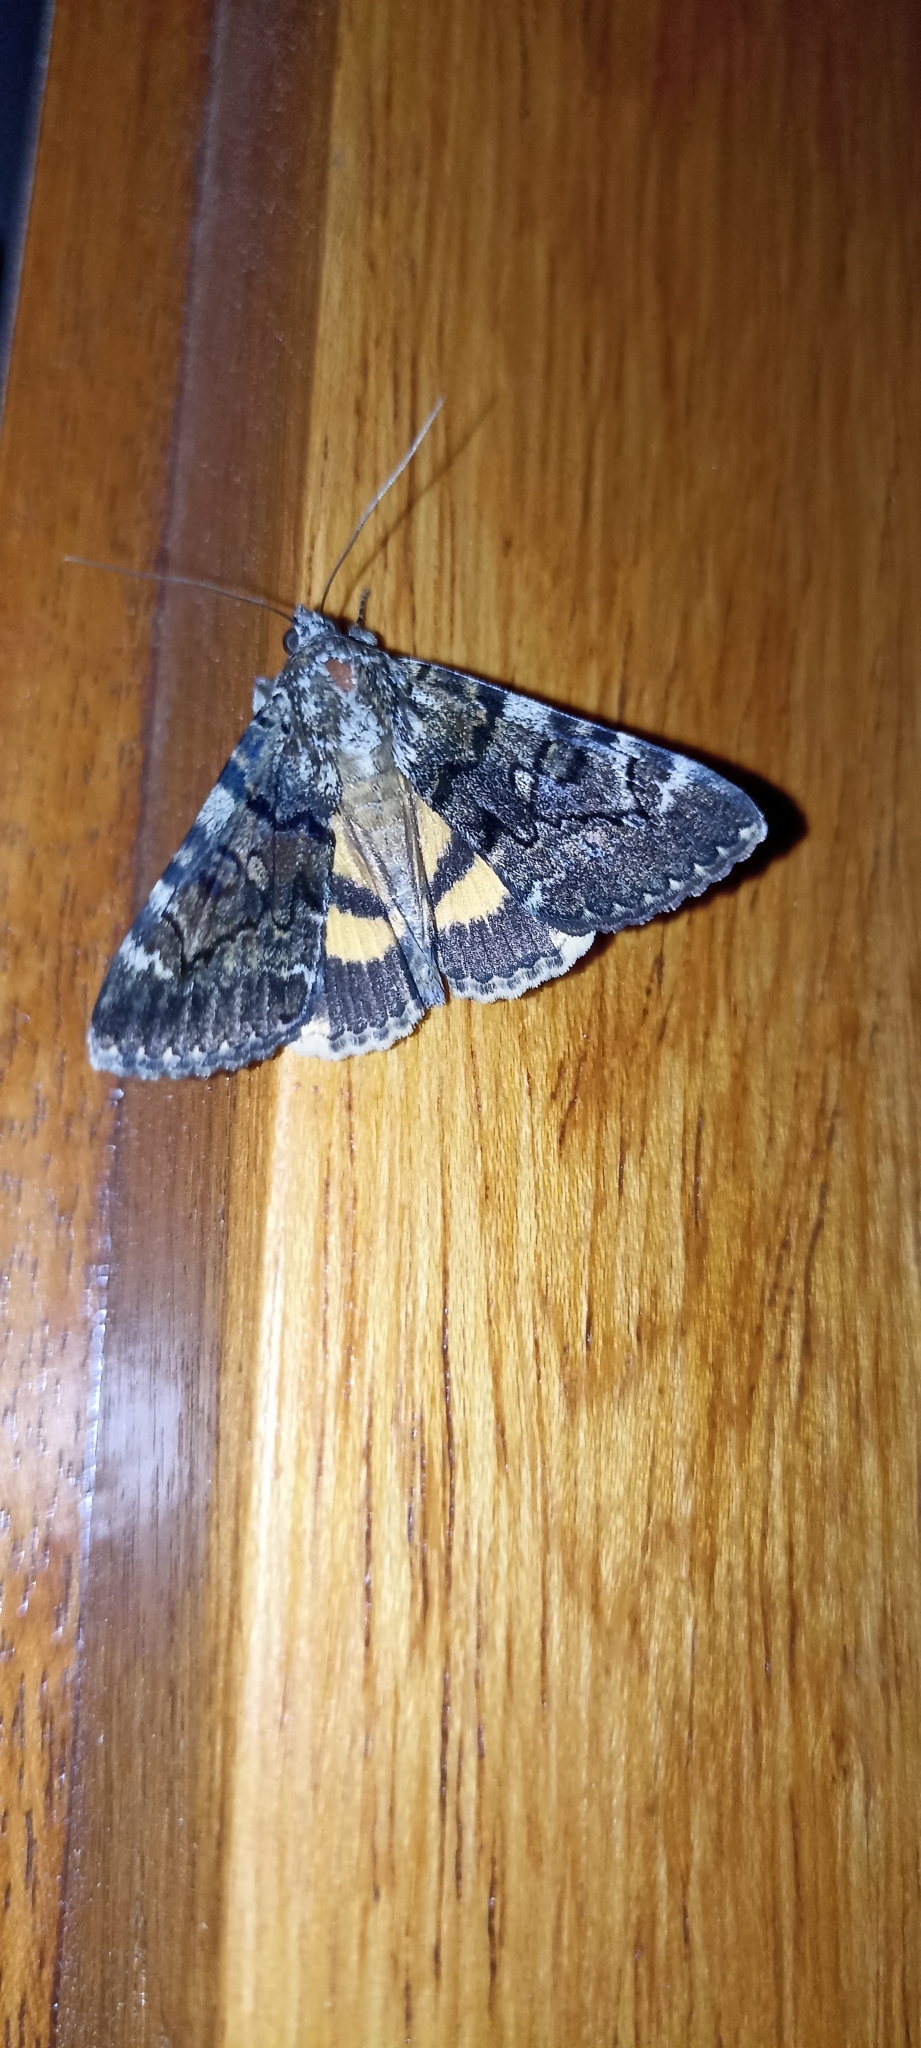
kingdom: Animalia
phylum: Arthropoda
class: Insecta
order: Lepidoptera
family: Erebidae
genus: Catocala
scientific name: Catocala nymphagoga
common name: Oak yellow underwing
